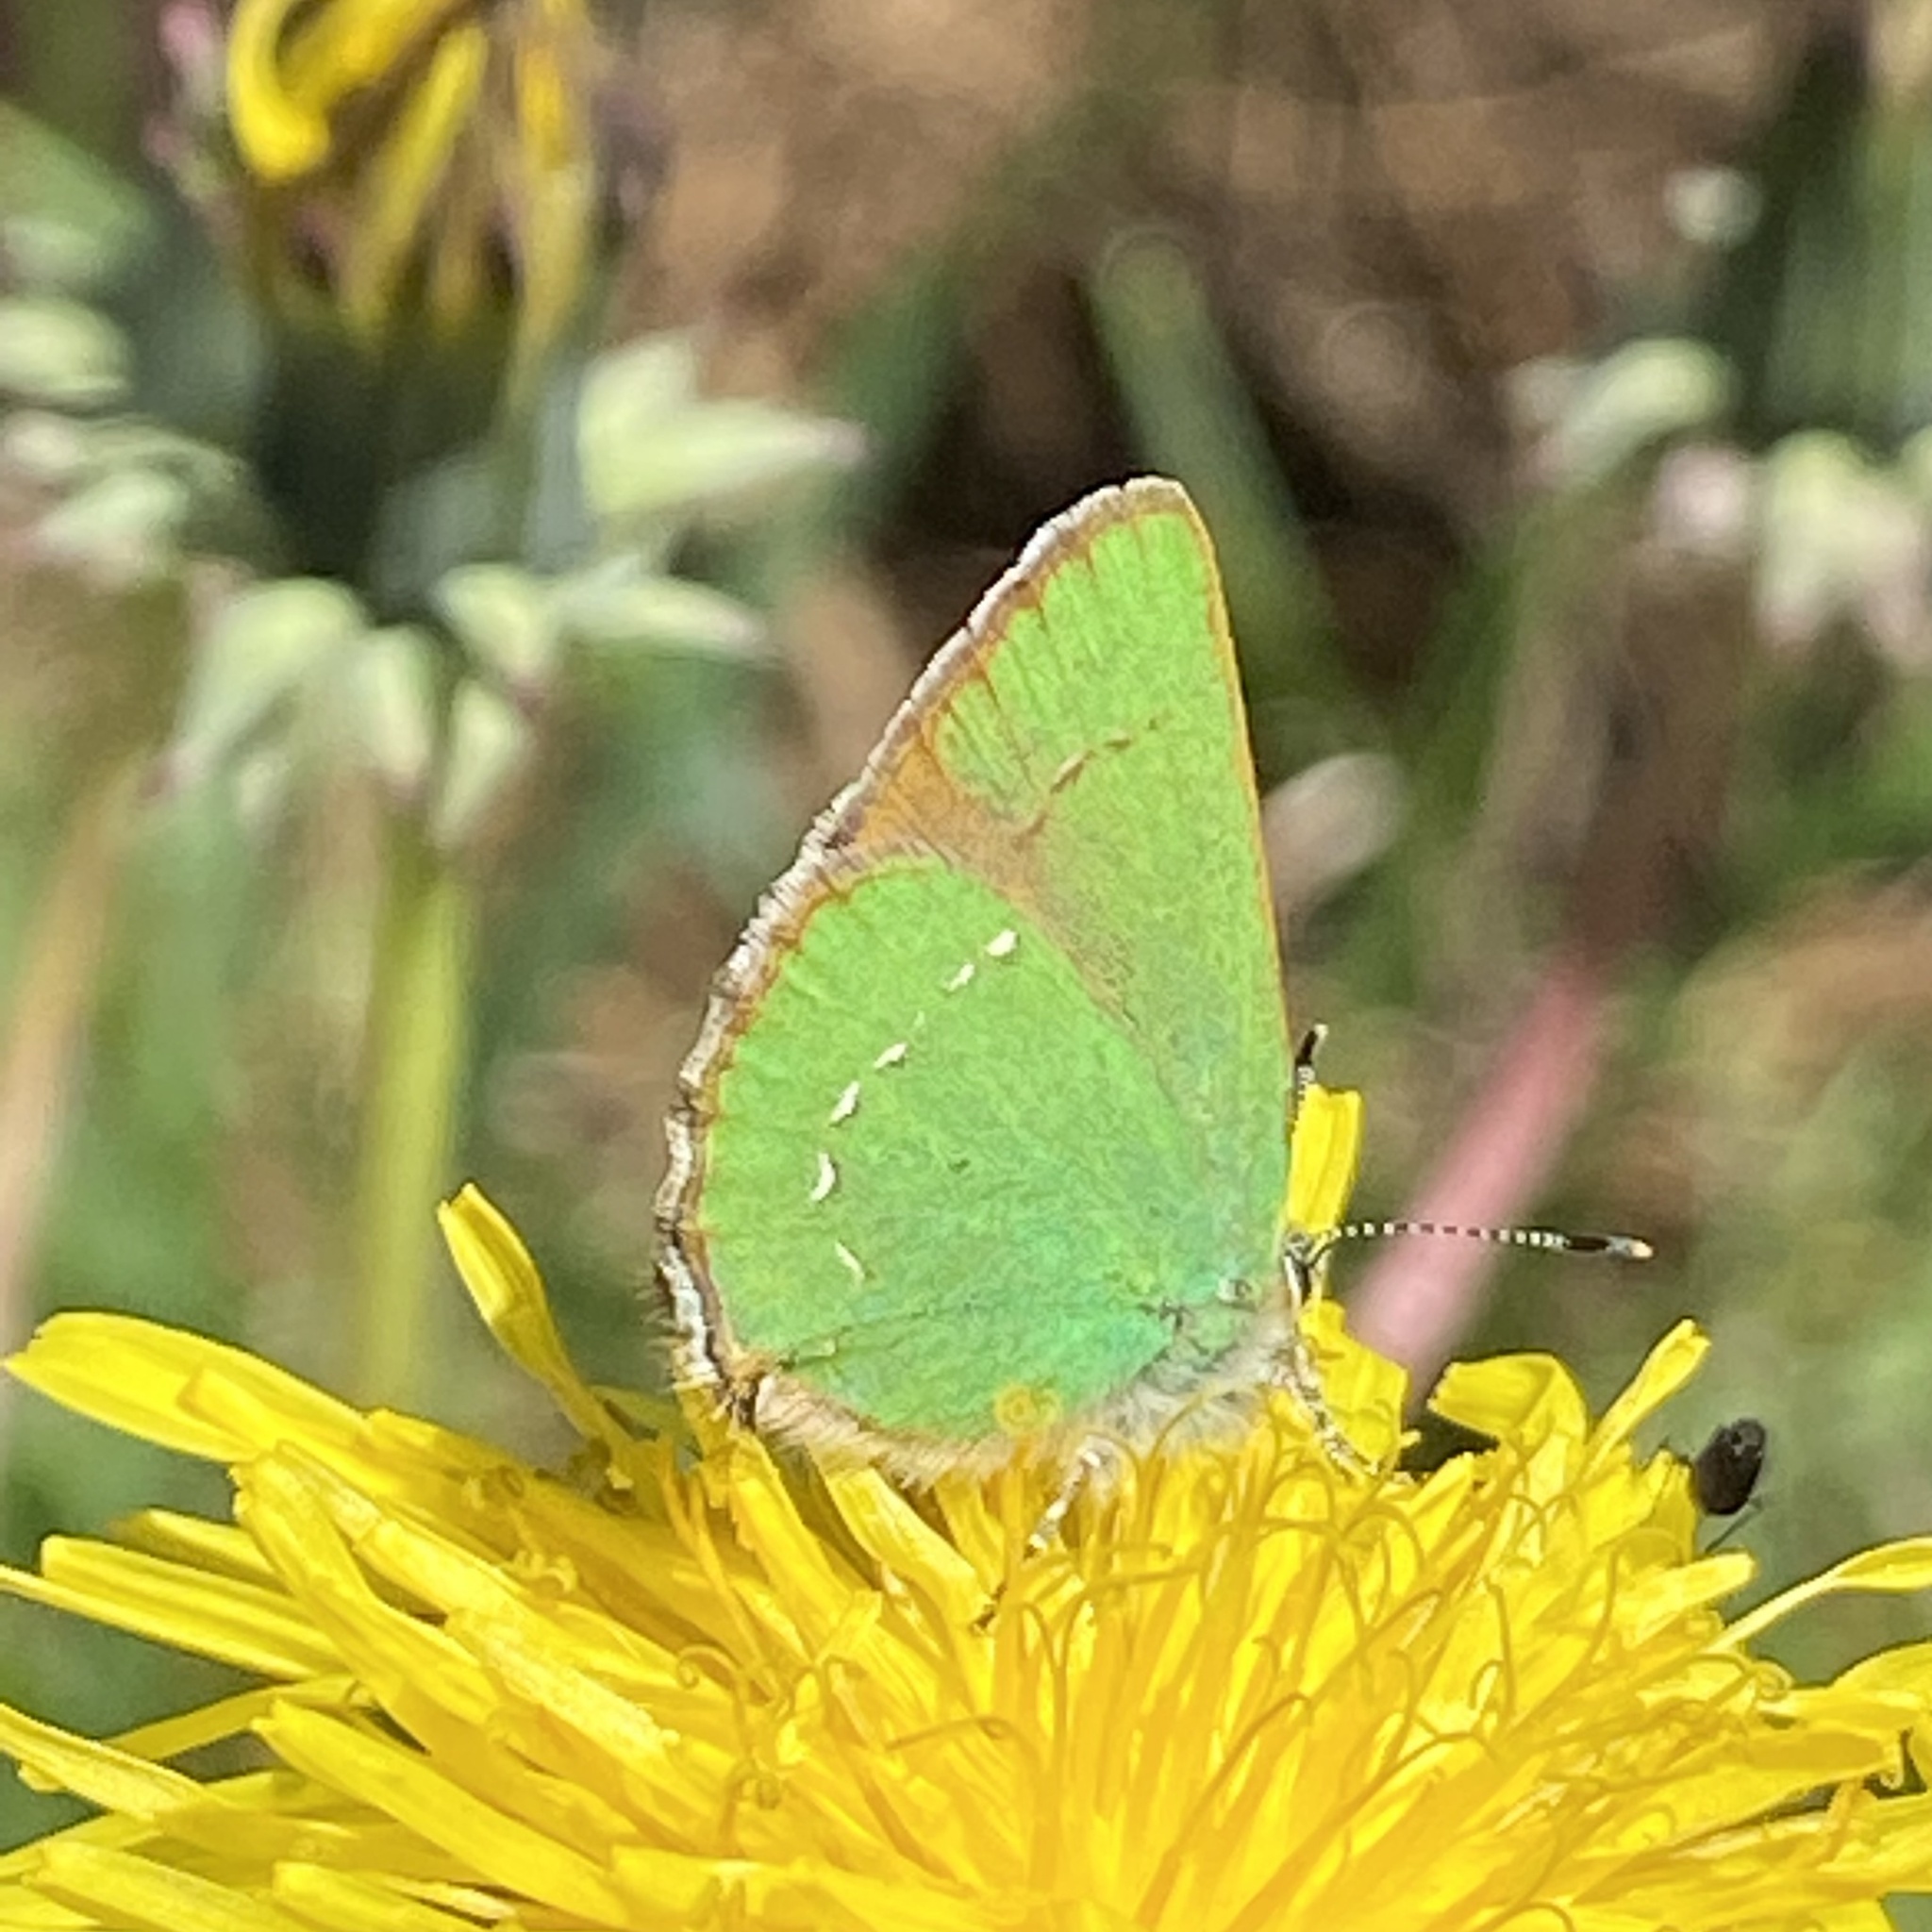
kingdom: Animalia
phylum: Arthropoda
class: Insecta
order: Lepidoptera
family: Lycaenidae
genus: Callophrys
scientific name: Callophrys rubi
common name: Green hairstreak
